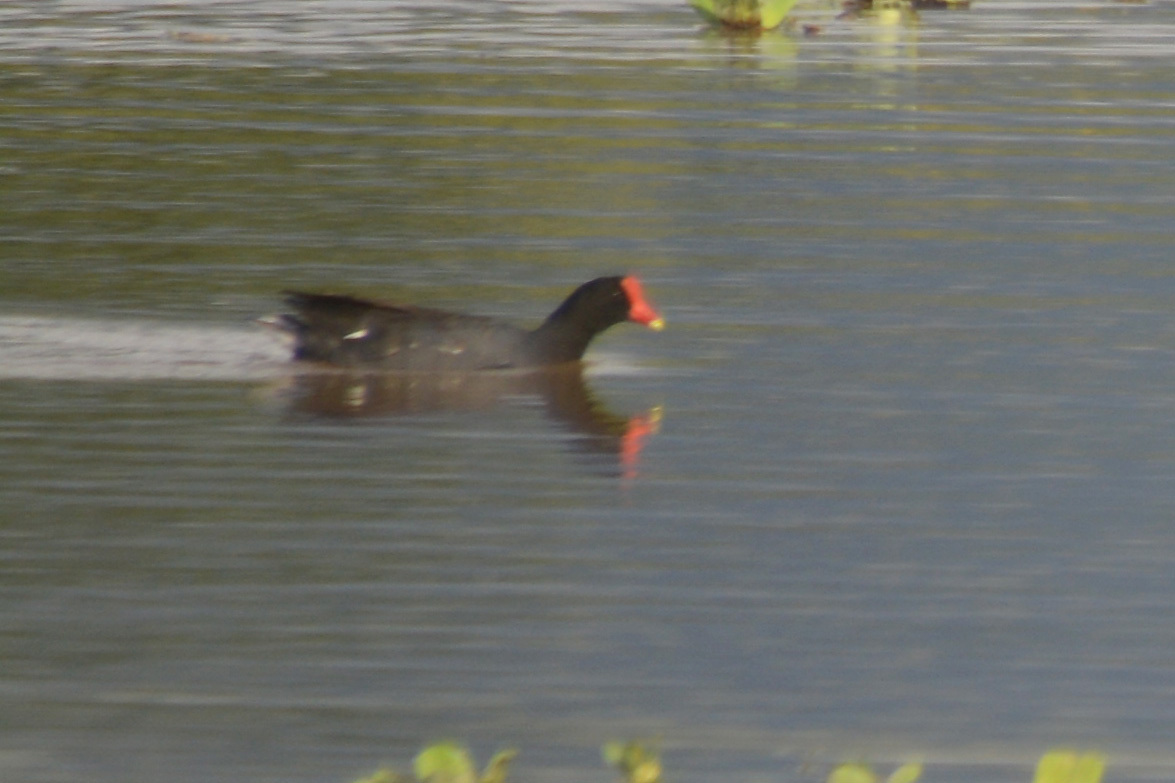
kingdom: Animalia
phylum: Chordata
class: Aves
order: Gruiformes
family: Rallidae
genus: Gallinula
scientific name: Gallinula chloropus
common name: Common moorhen
